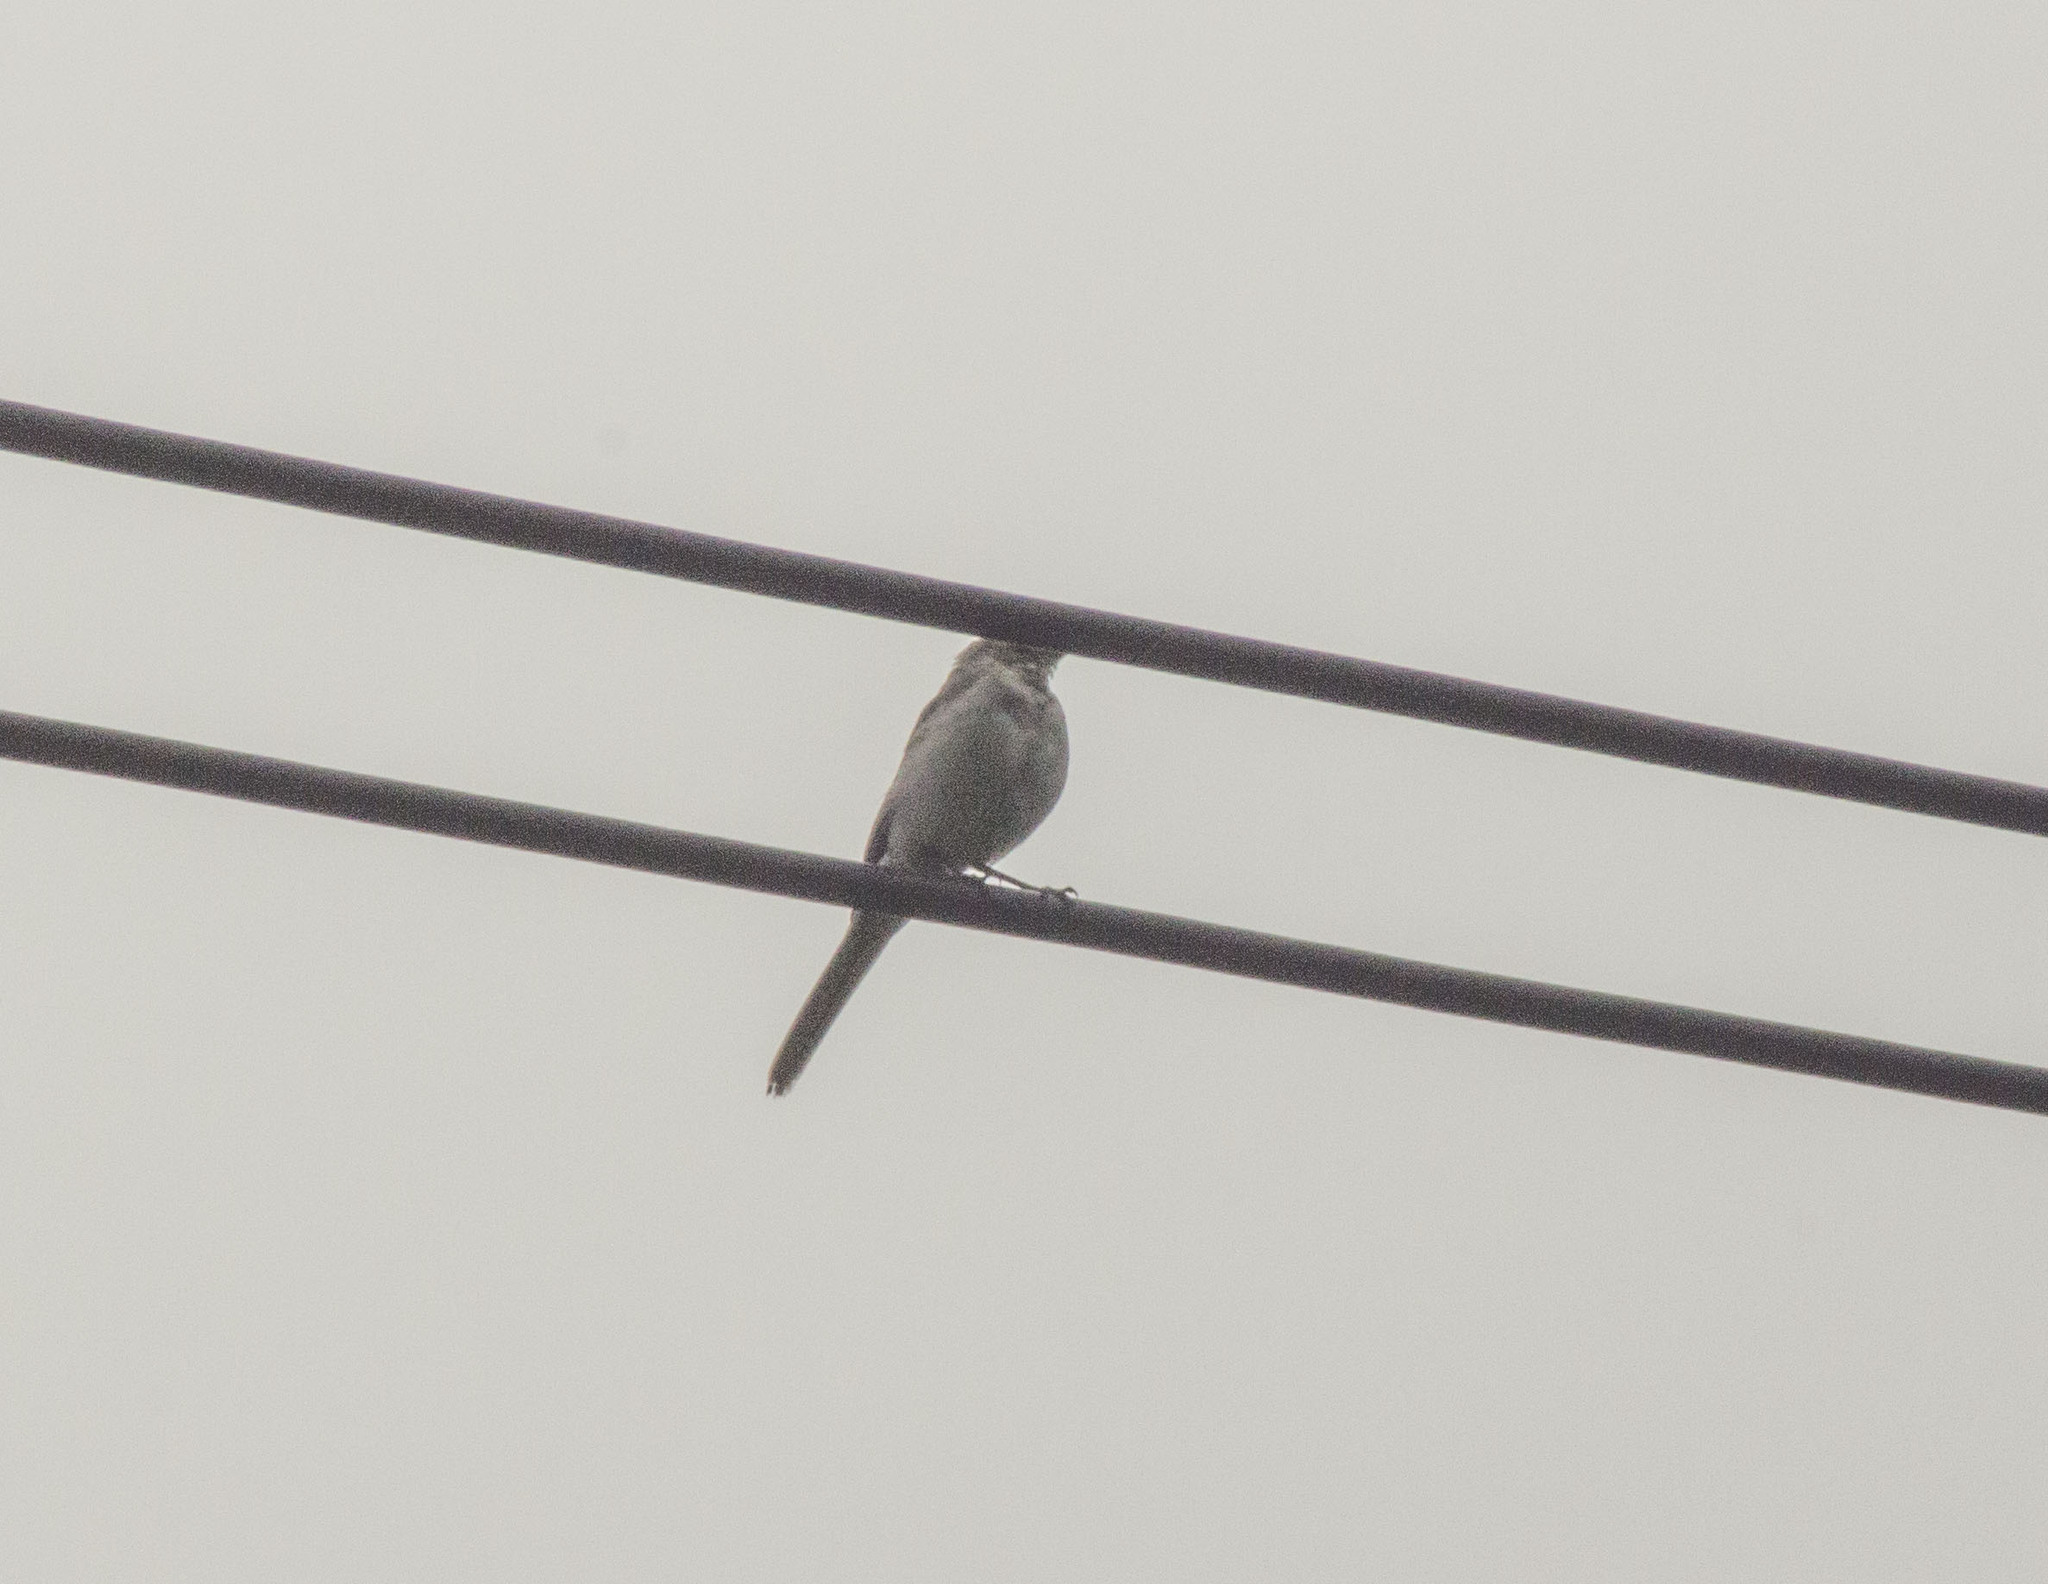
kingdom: Animalia
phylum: Chordata
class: Aves
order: Passeriformes
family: Motacillidae
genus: Motacilla
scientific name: Motacilla alba
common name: White wagtail
